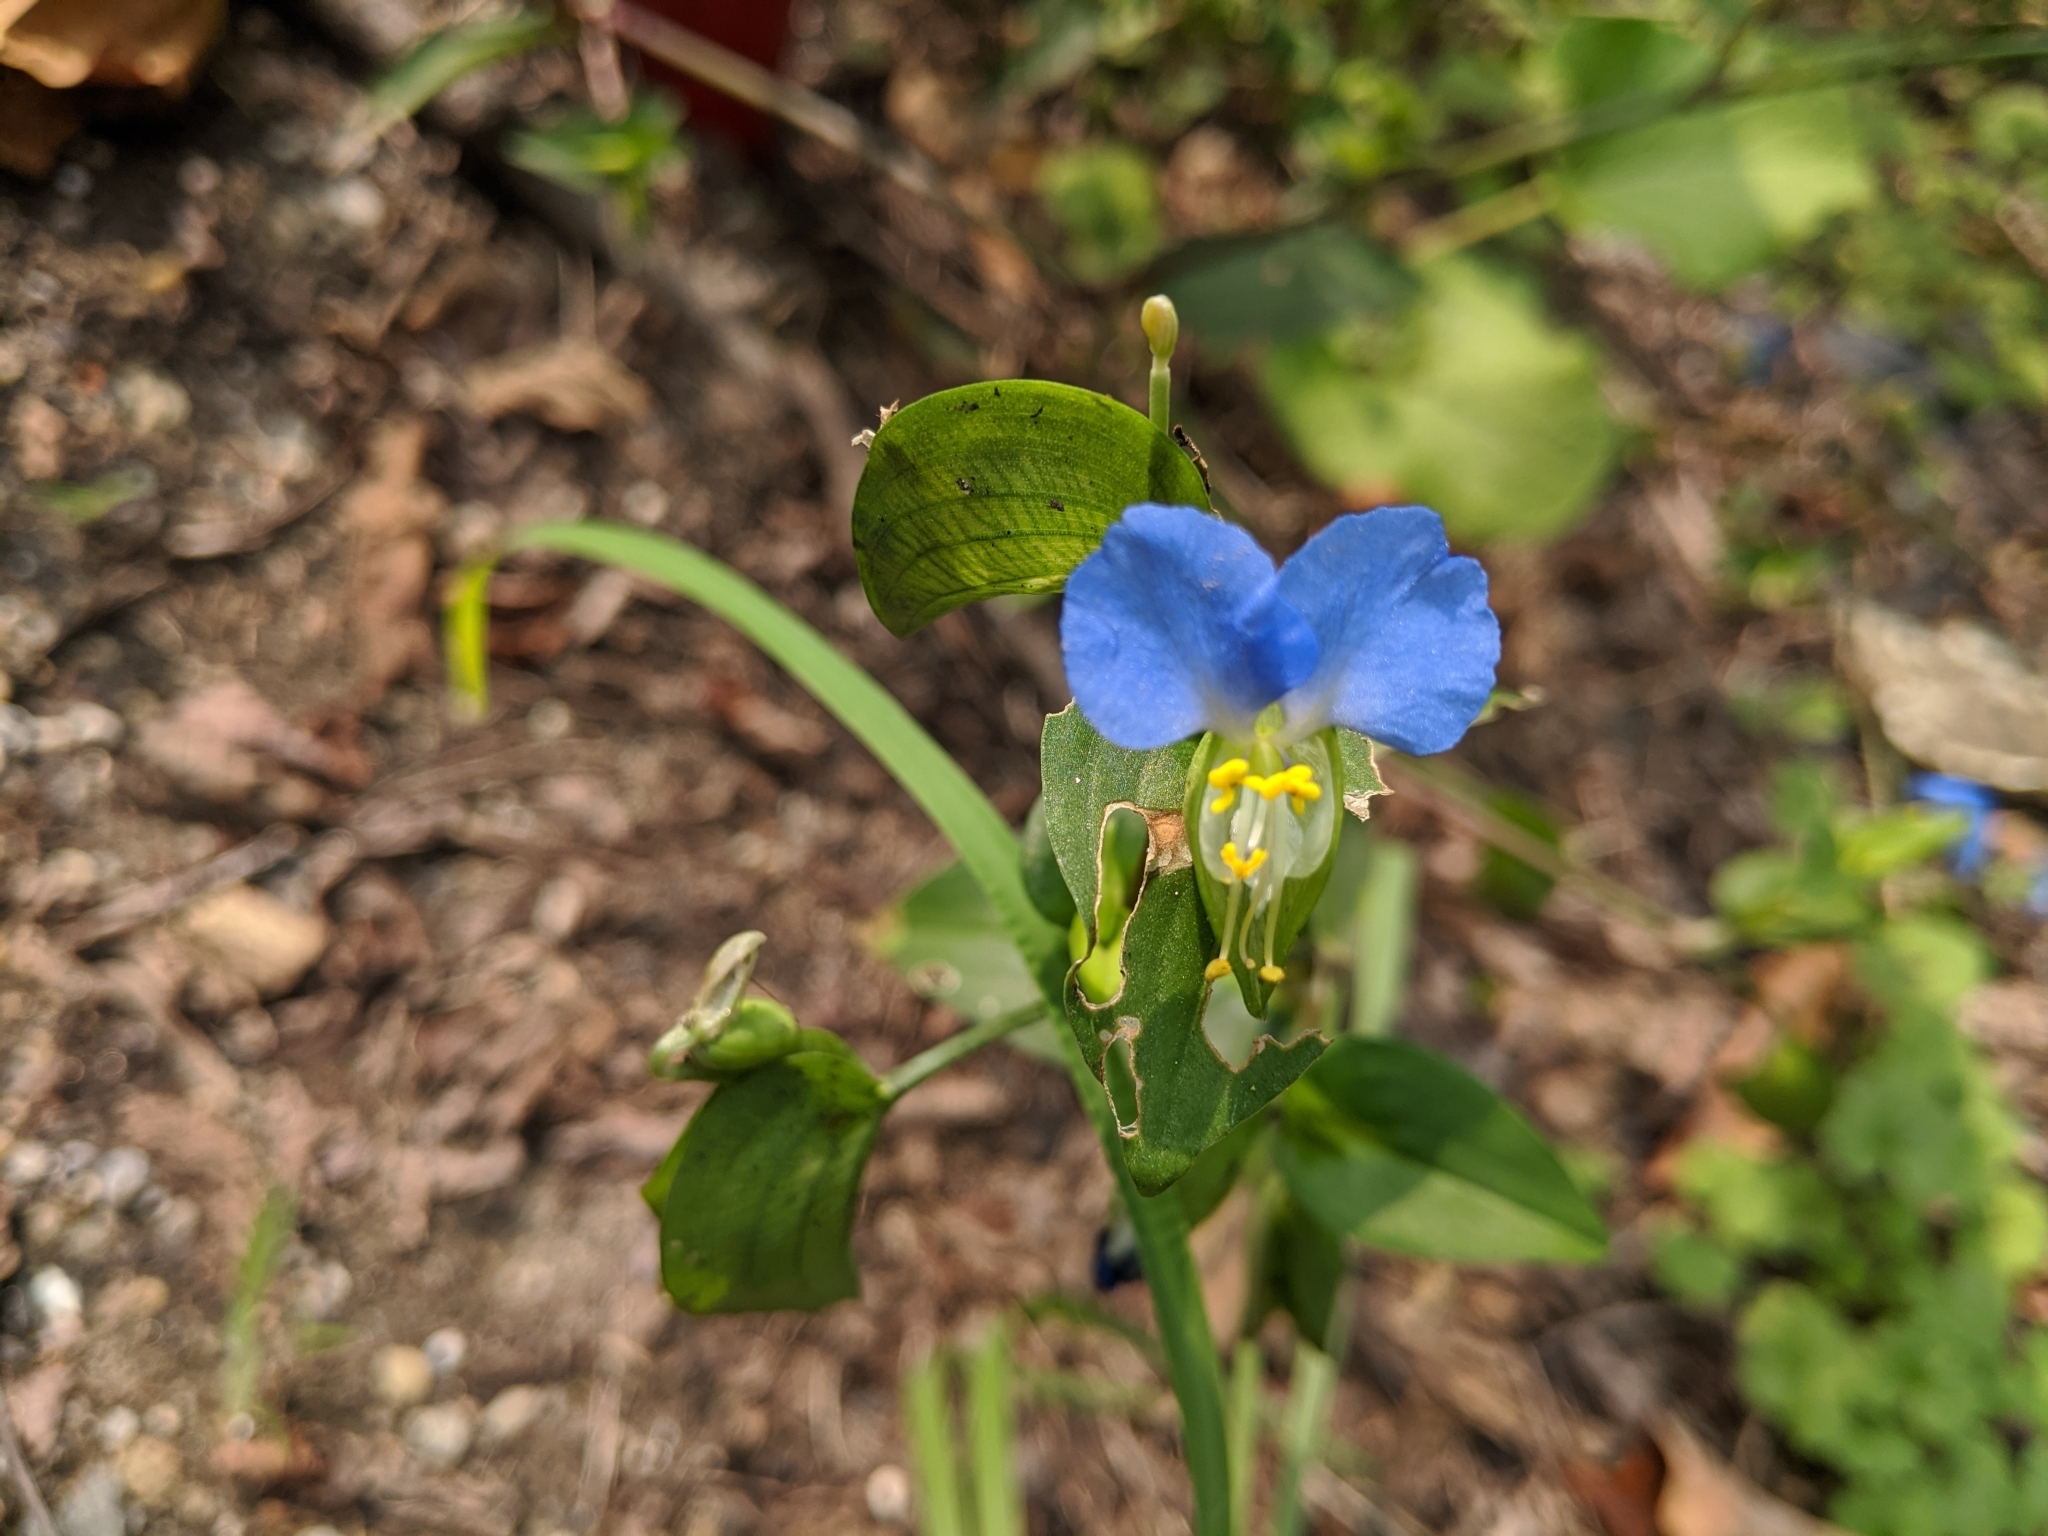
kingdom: Plantae
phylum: Tracheophyta
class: Liliopsida
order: Commelinales
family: Commelinaceae
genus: Commelina
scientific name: Commelina communis
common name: Asiatic dayflower
